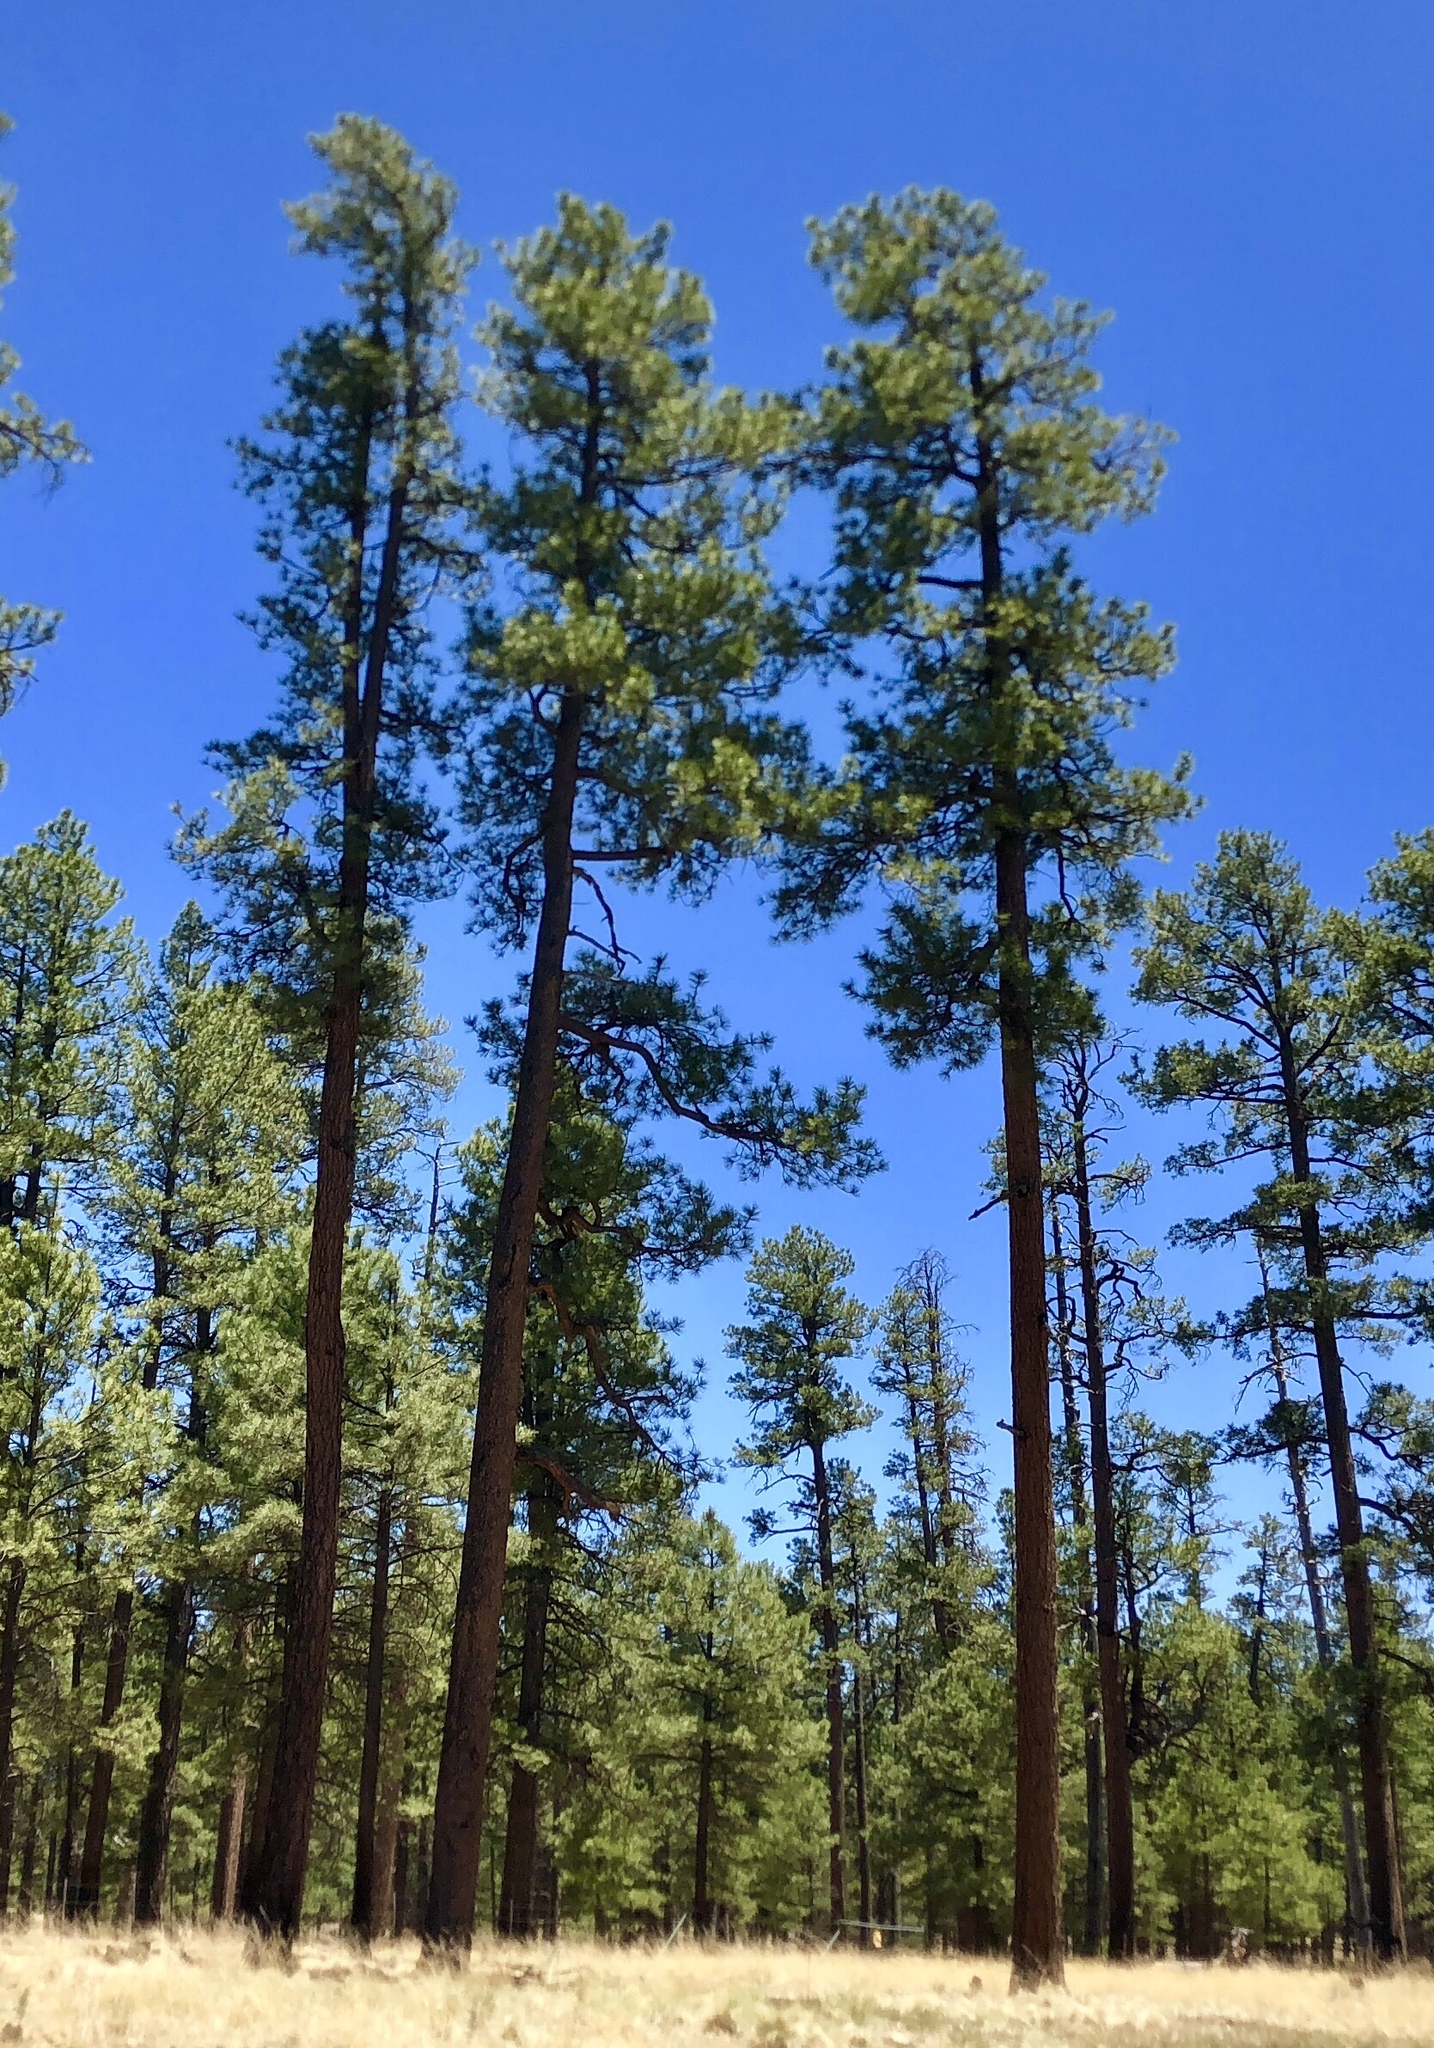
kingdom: Plantae
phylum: Tracheophyta
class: Pinopsida
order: Pinales
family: Pinaceae
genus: Pinus
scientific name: Pinus ponderosa
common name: Western yellow-pine
